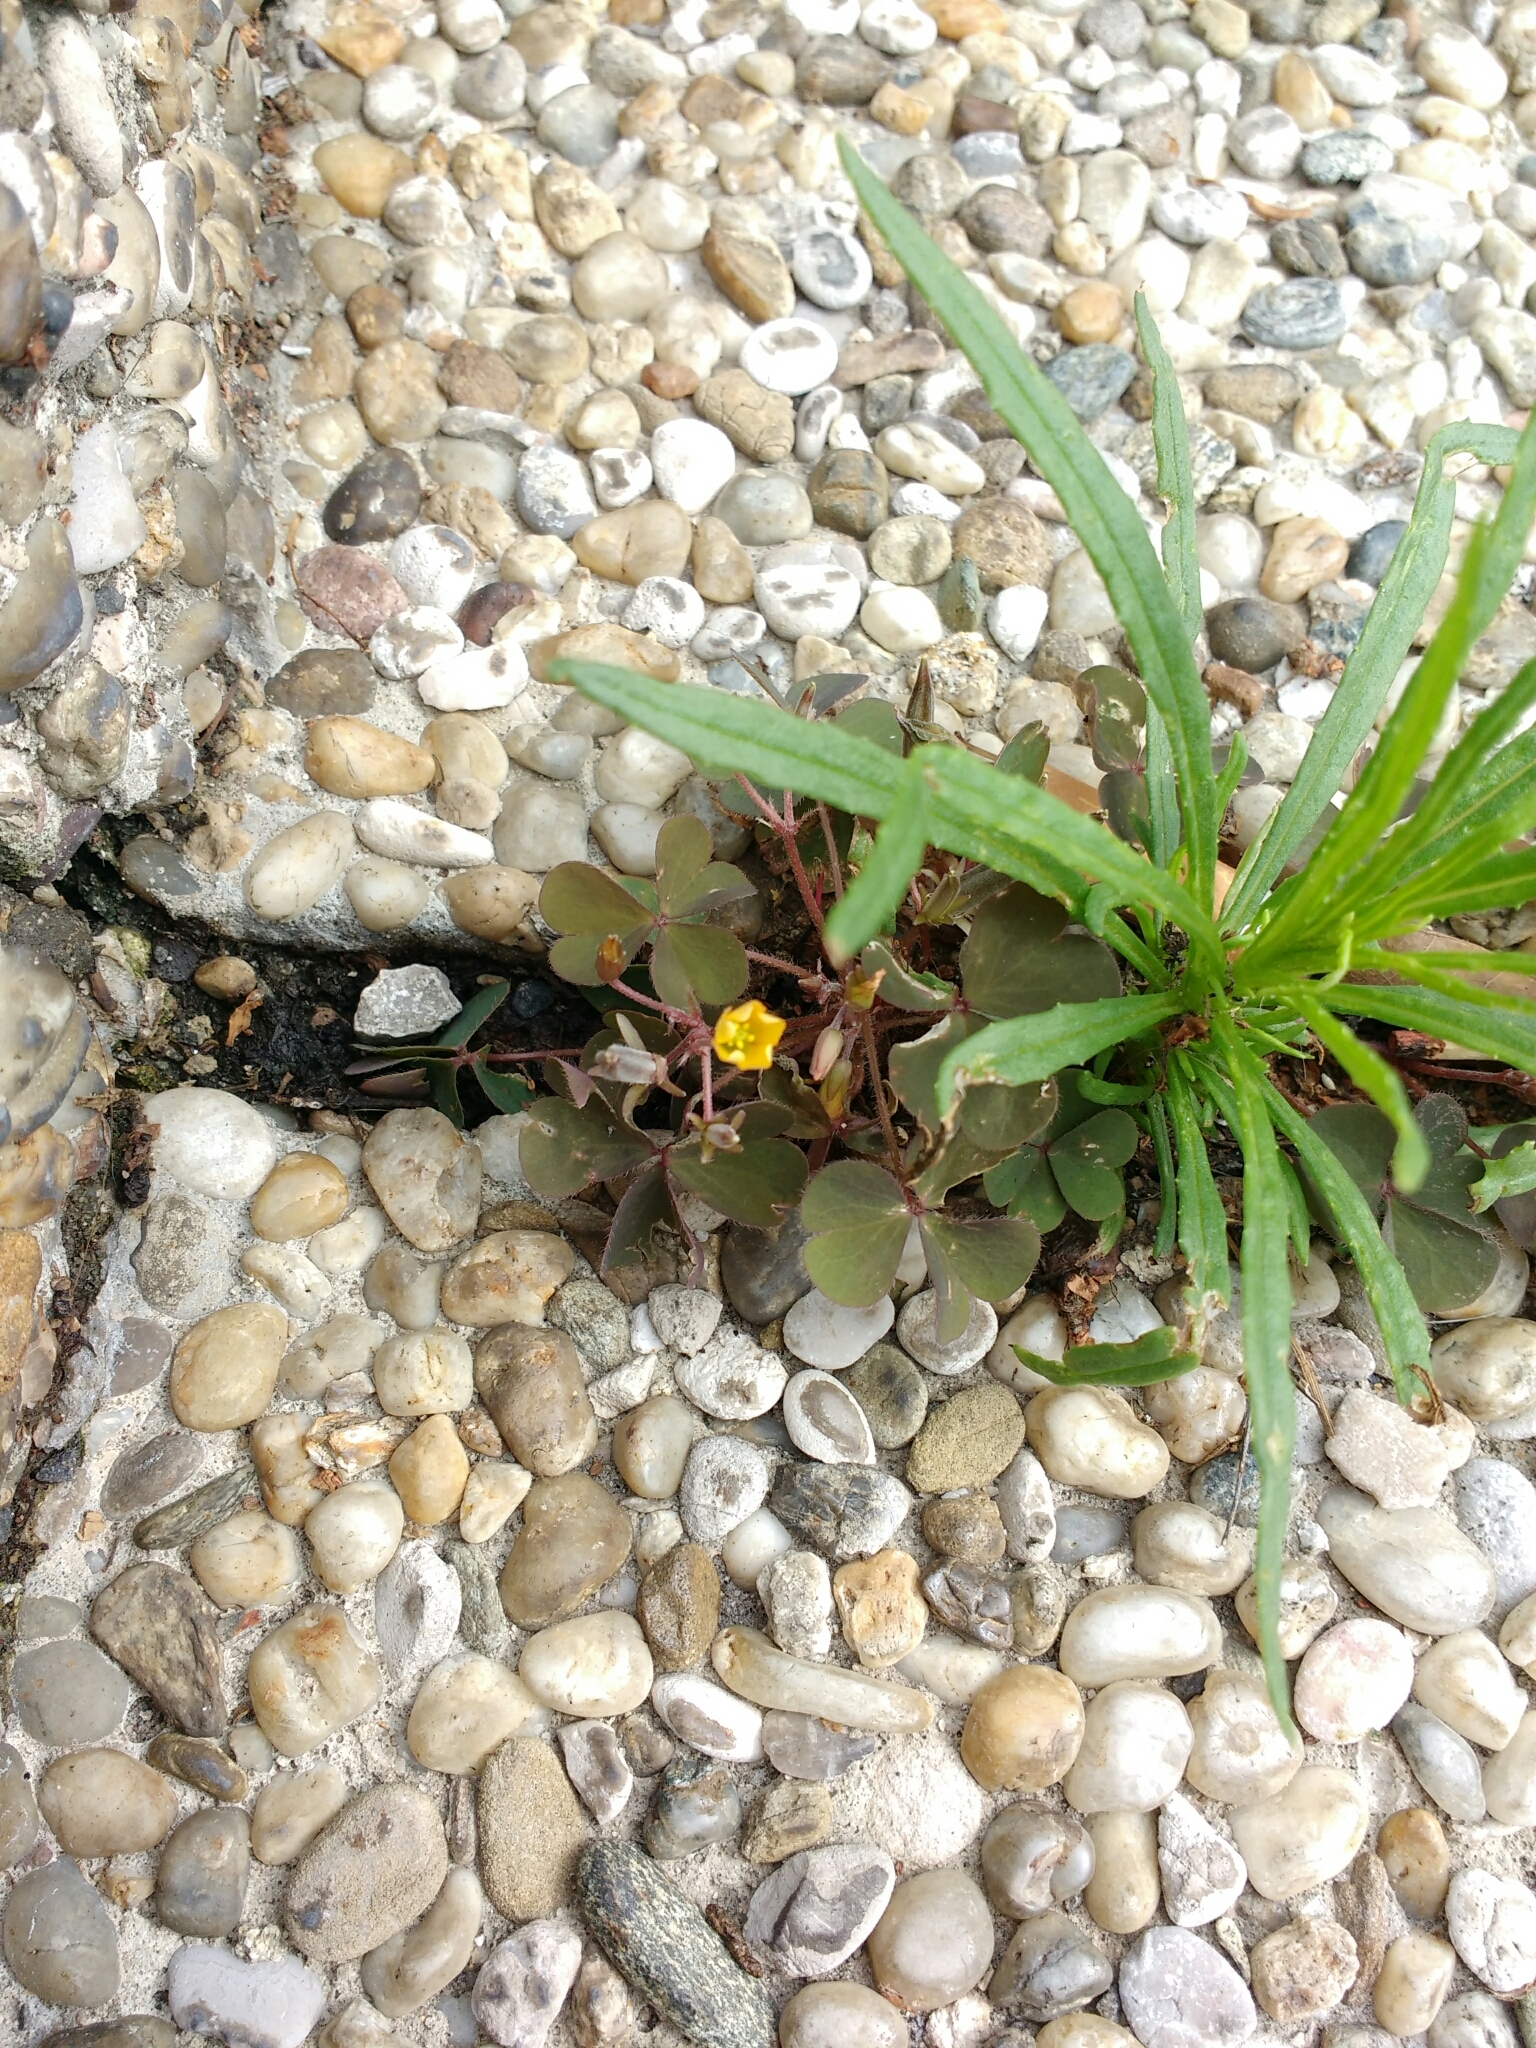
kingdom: Plantae
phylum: Tracheophyta
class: Magnoliopsida
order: Oxalidales
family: Oxalidaceae
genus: Oxalis
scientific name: Oxalis corniculata
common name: Procumbent yellow-sorrel
